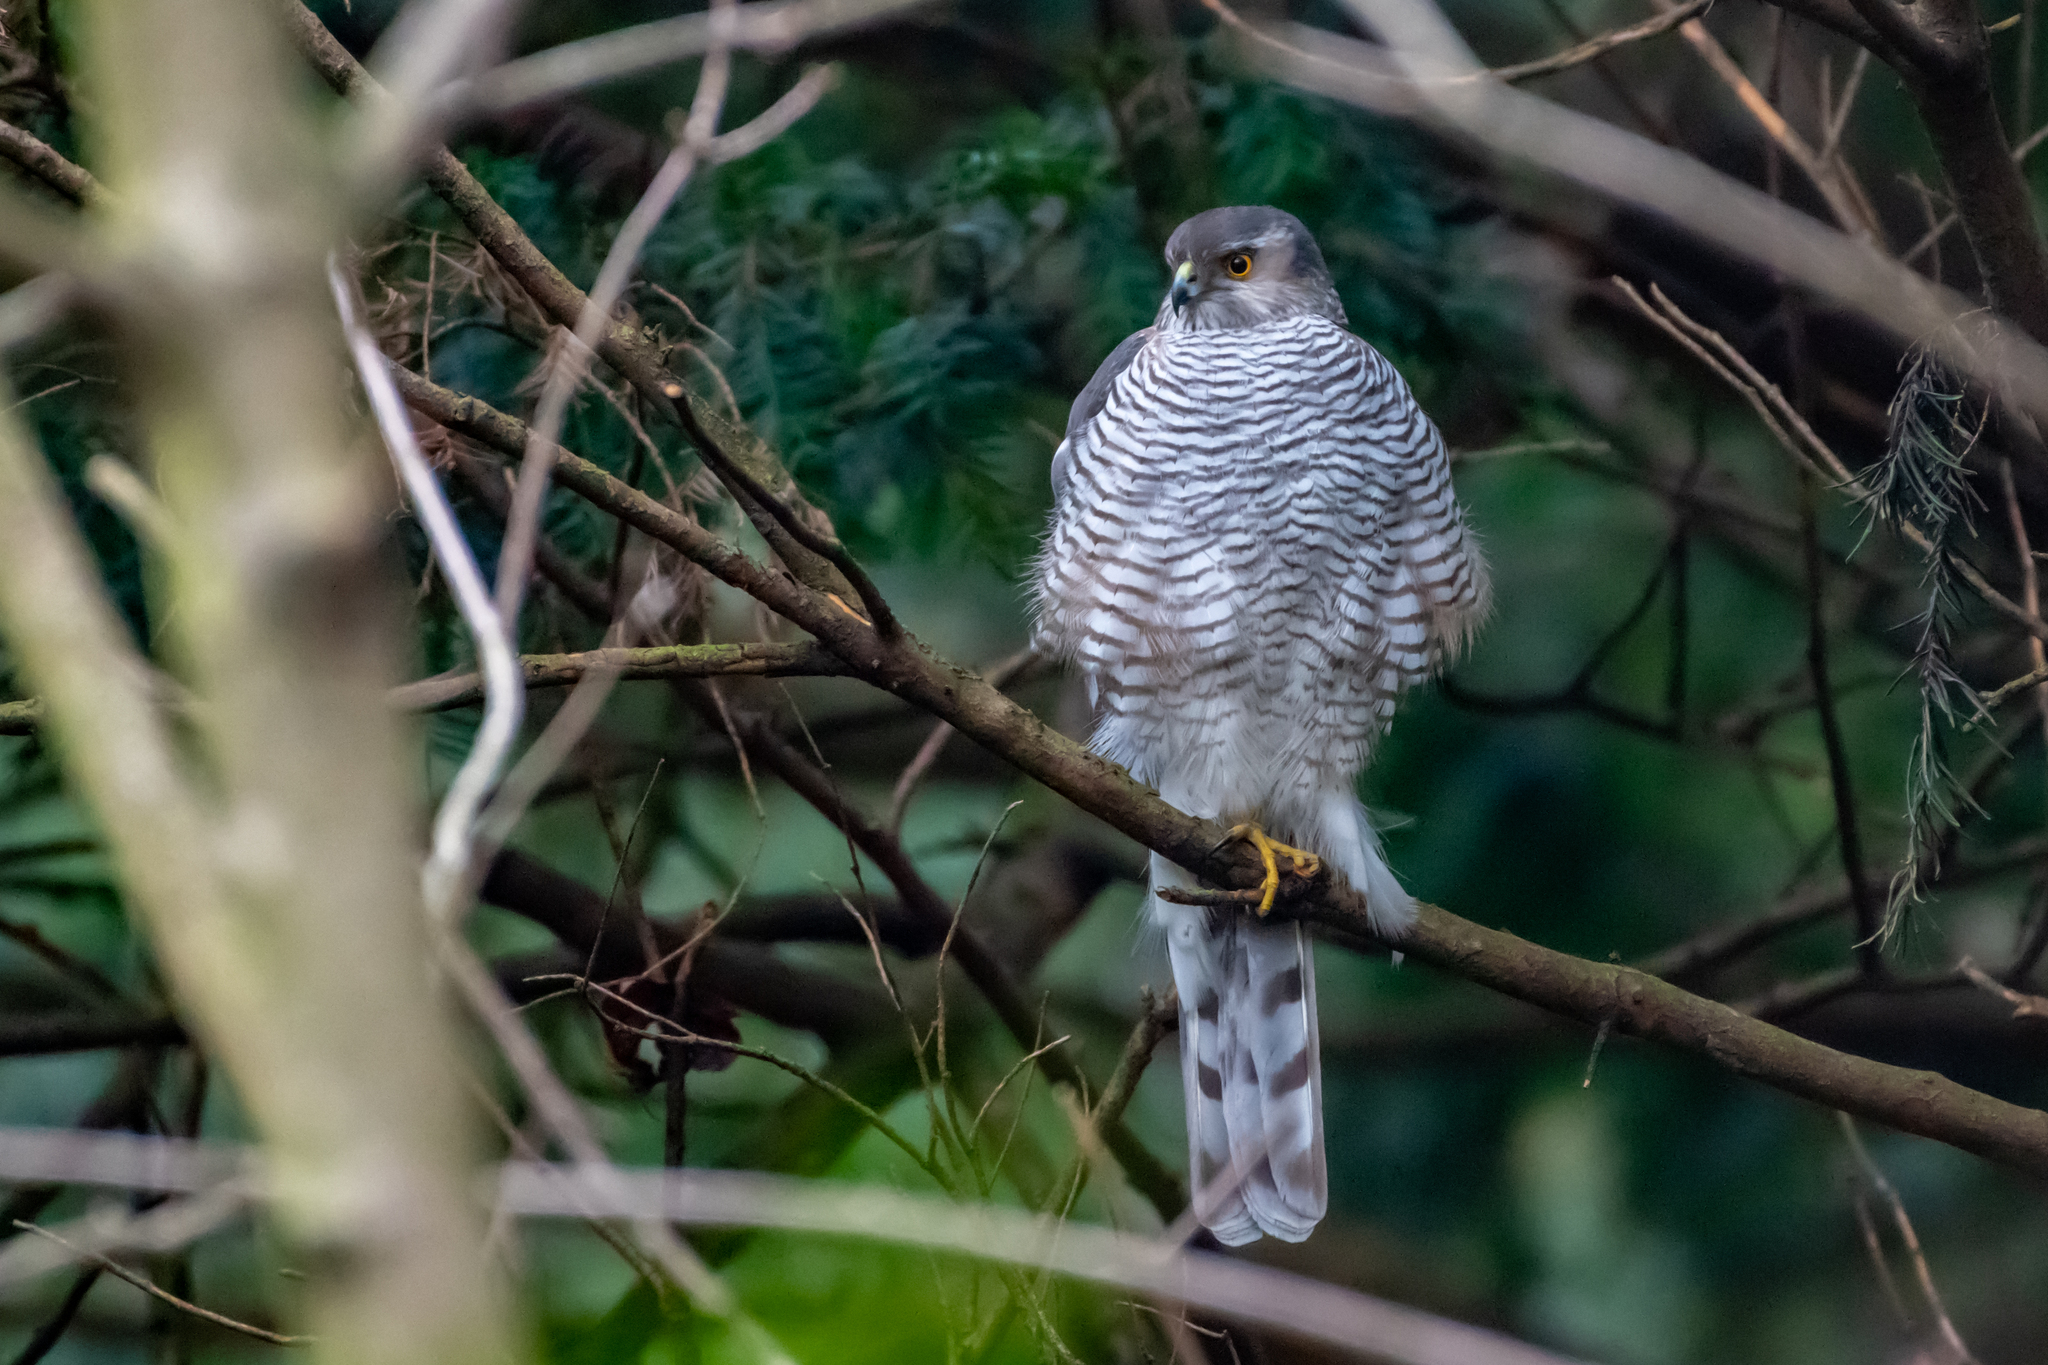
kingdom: Animalia
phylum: Chordata
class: Aves
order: Accipitriformes
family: Accipitridae
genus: Accipiter
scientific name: Accipiter nisus
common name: Eurasian sparrowhawk
